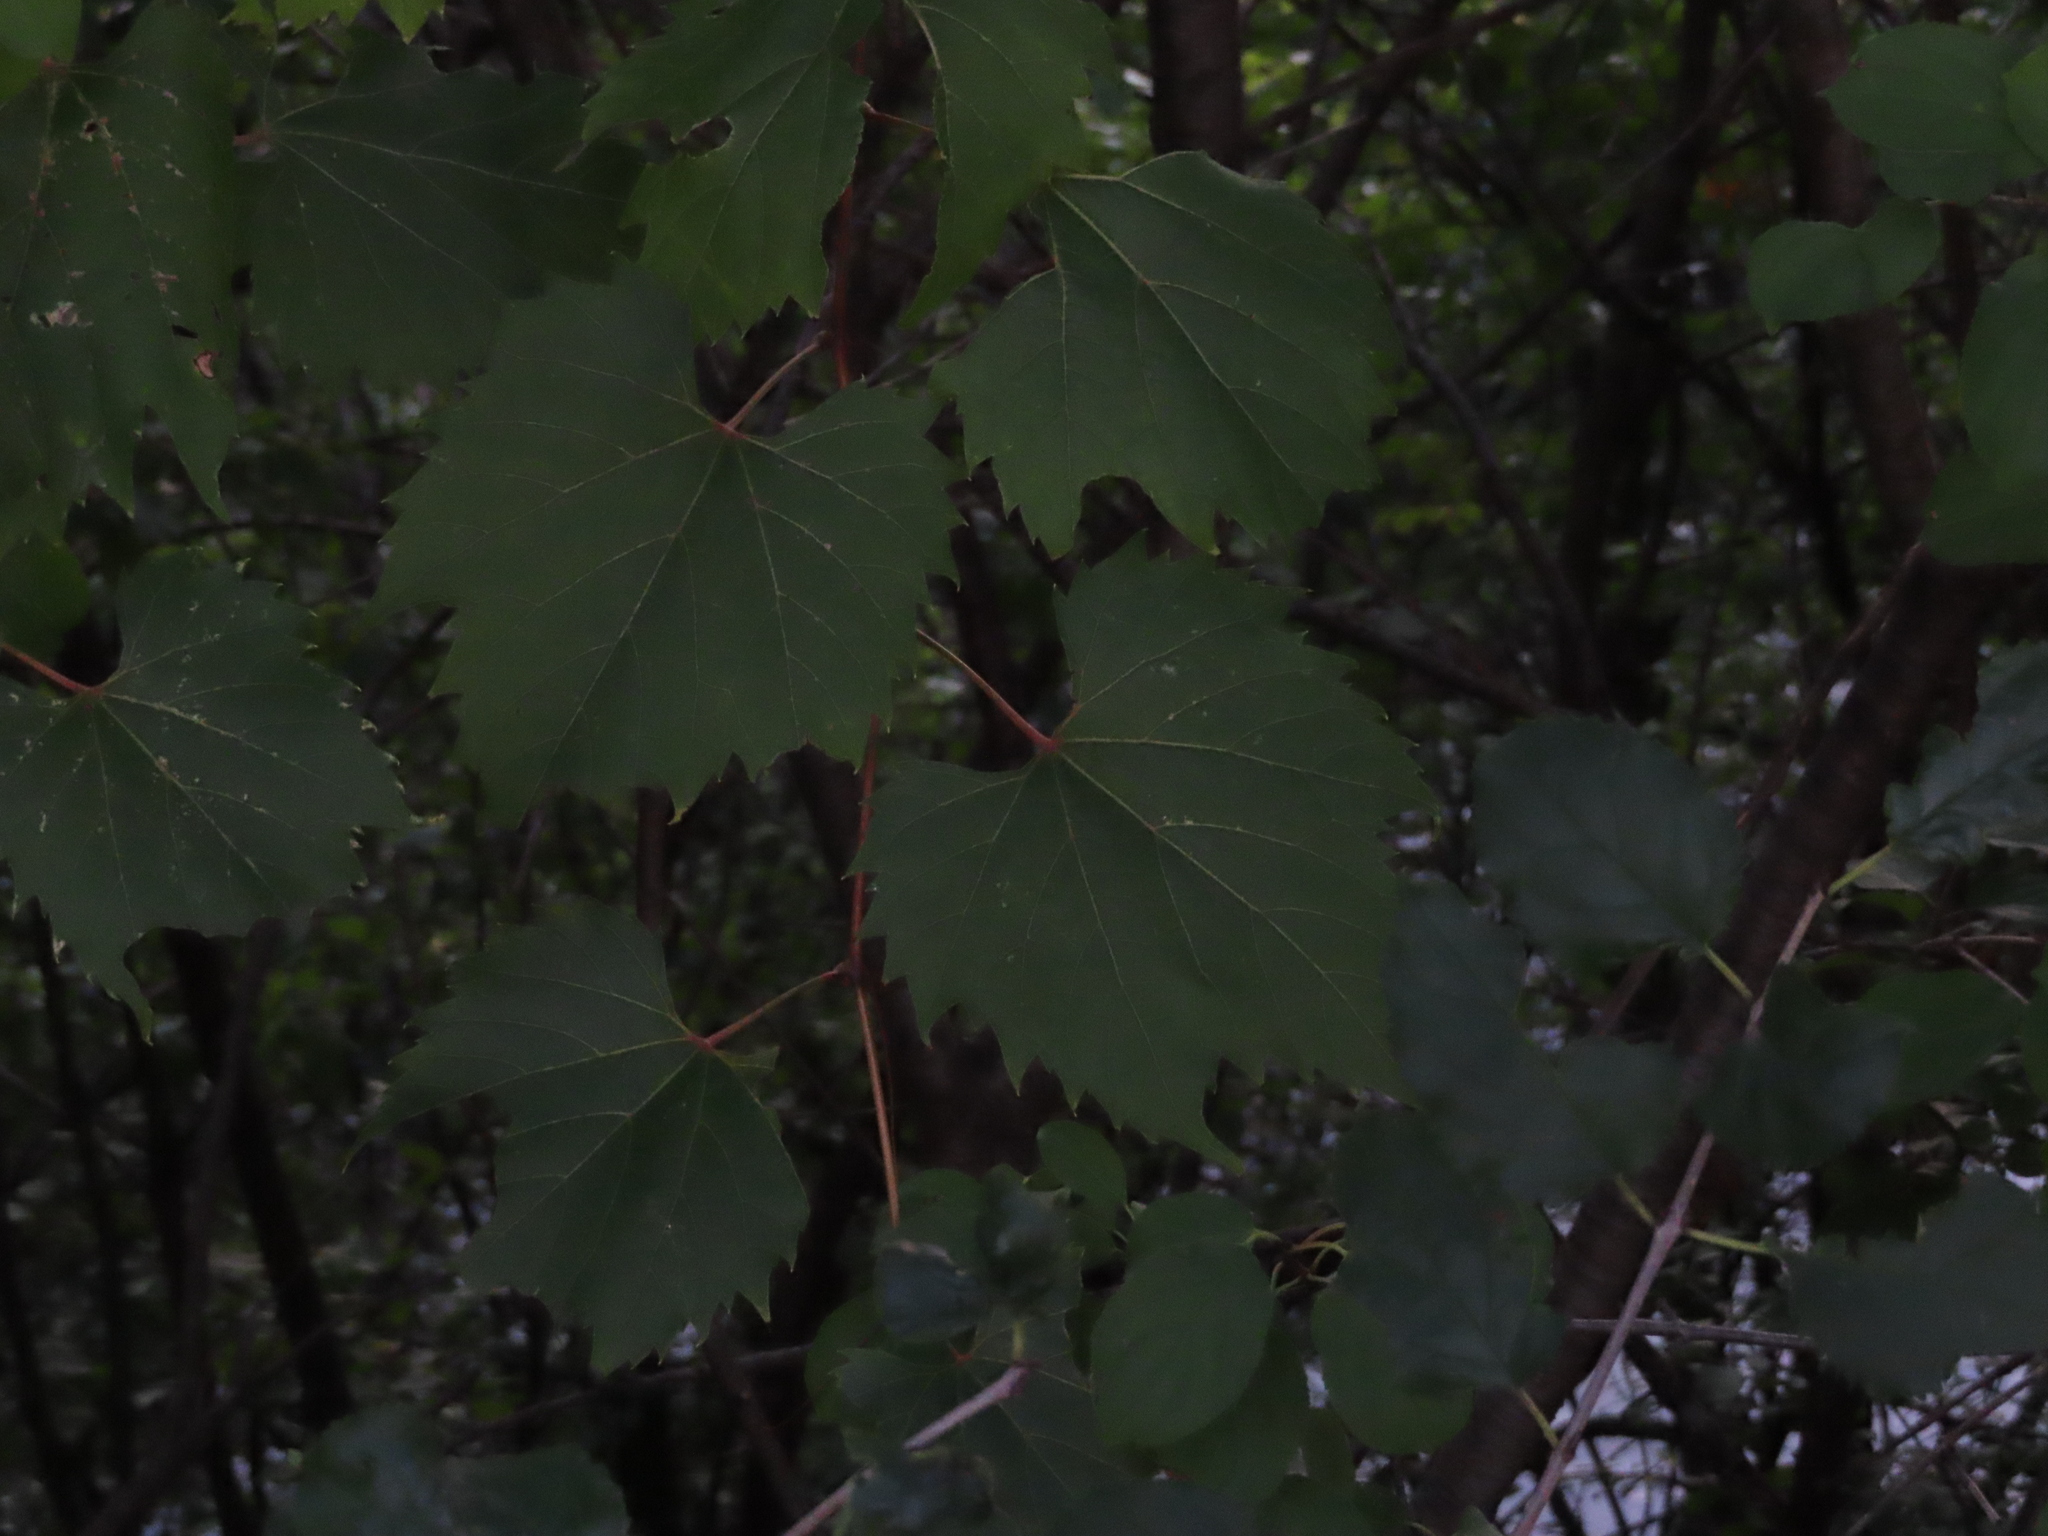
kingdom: Plantae
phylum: Tracheophyta
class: Magnoliopsida
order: Vitales
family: Vitaceae
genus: Vitis
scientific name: Vitis riparia
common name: Frost grape
